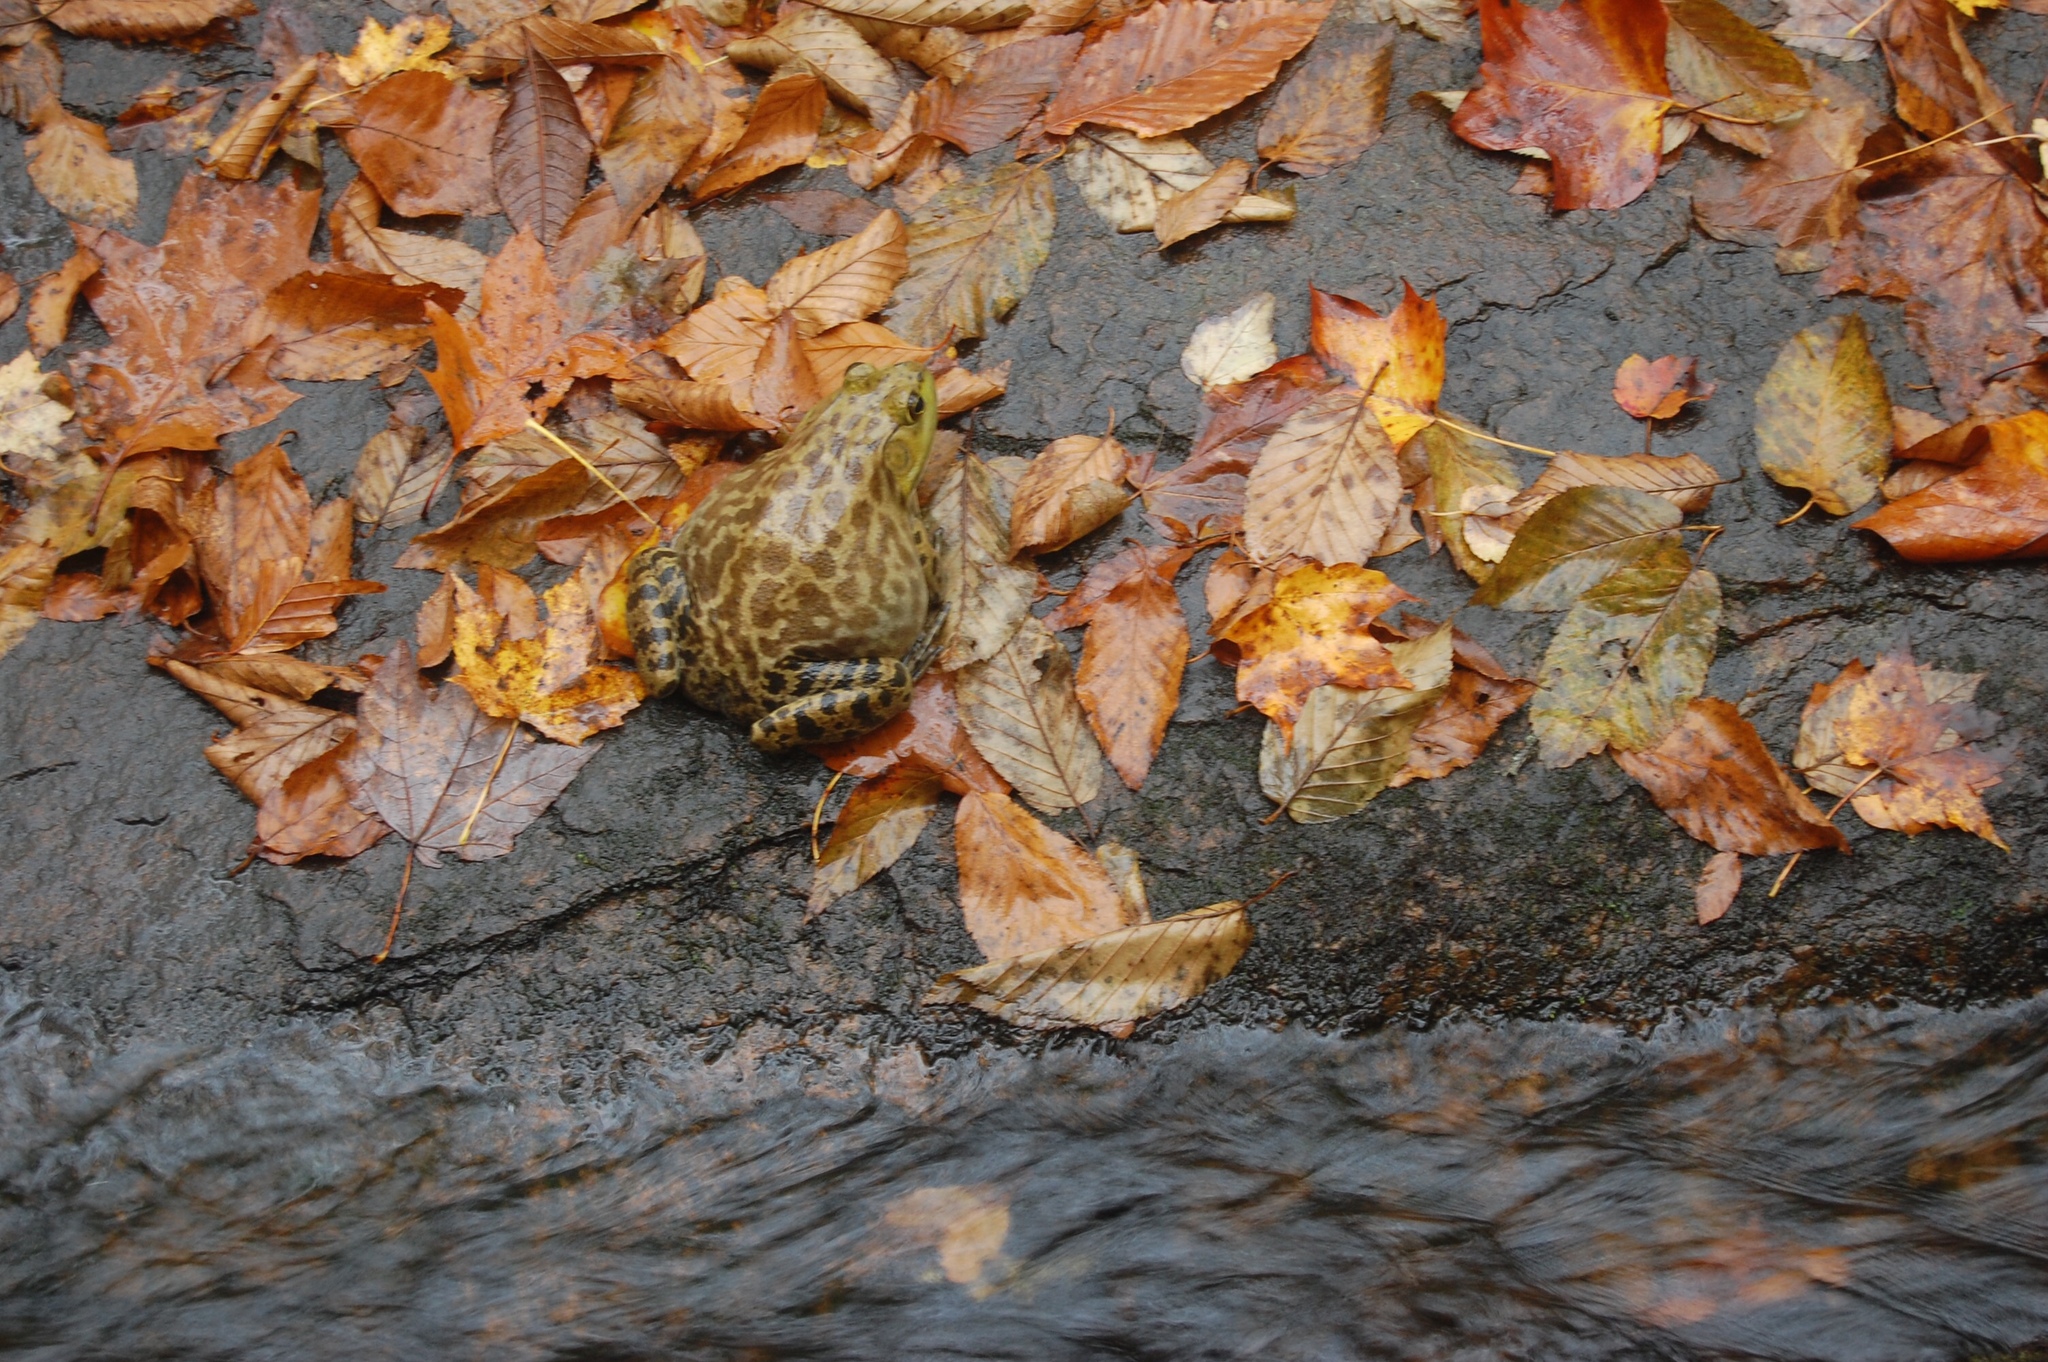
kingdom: Animalia
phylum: Chordata
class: Amphibia
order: Anura
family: Ranidae
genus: Lithobates
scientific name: Lithobates catesbeianus
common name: American bullfrog
